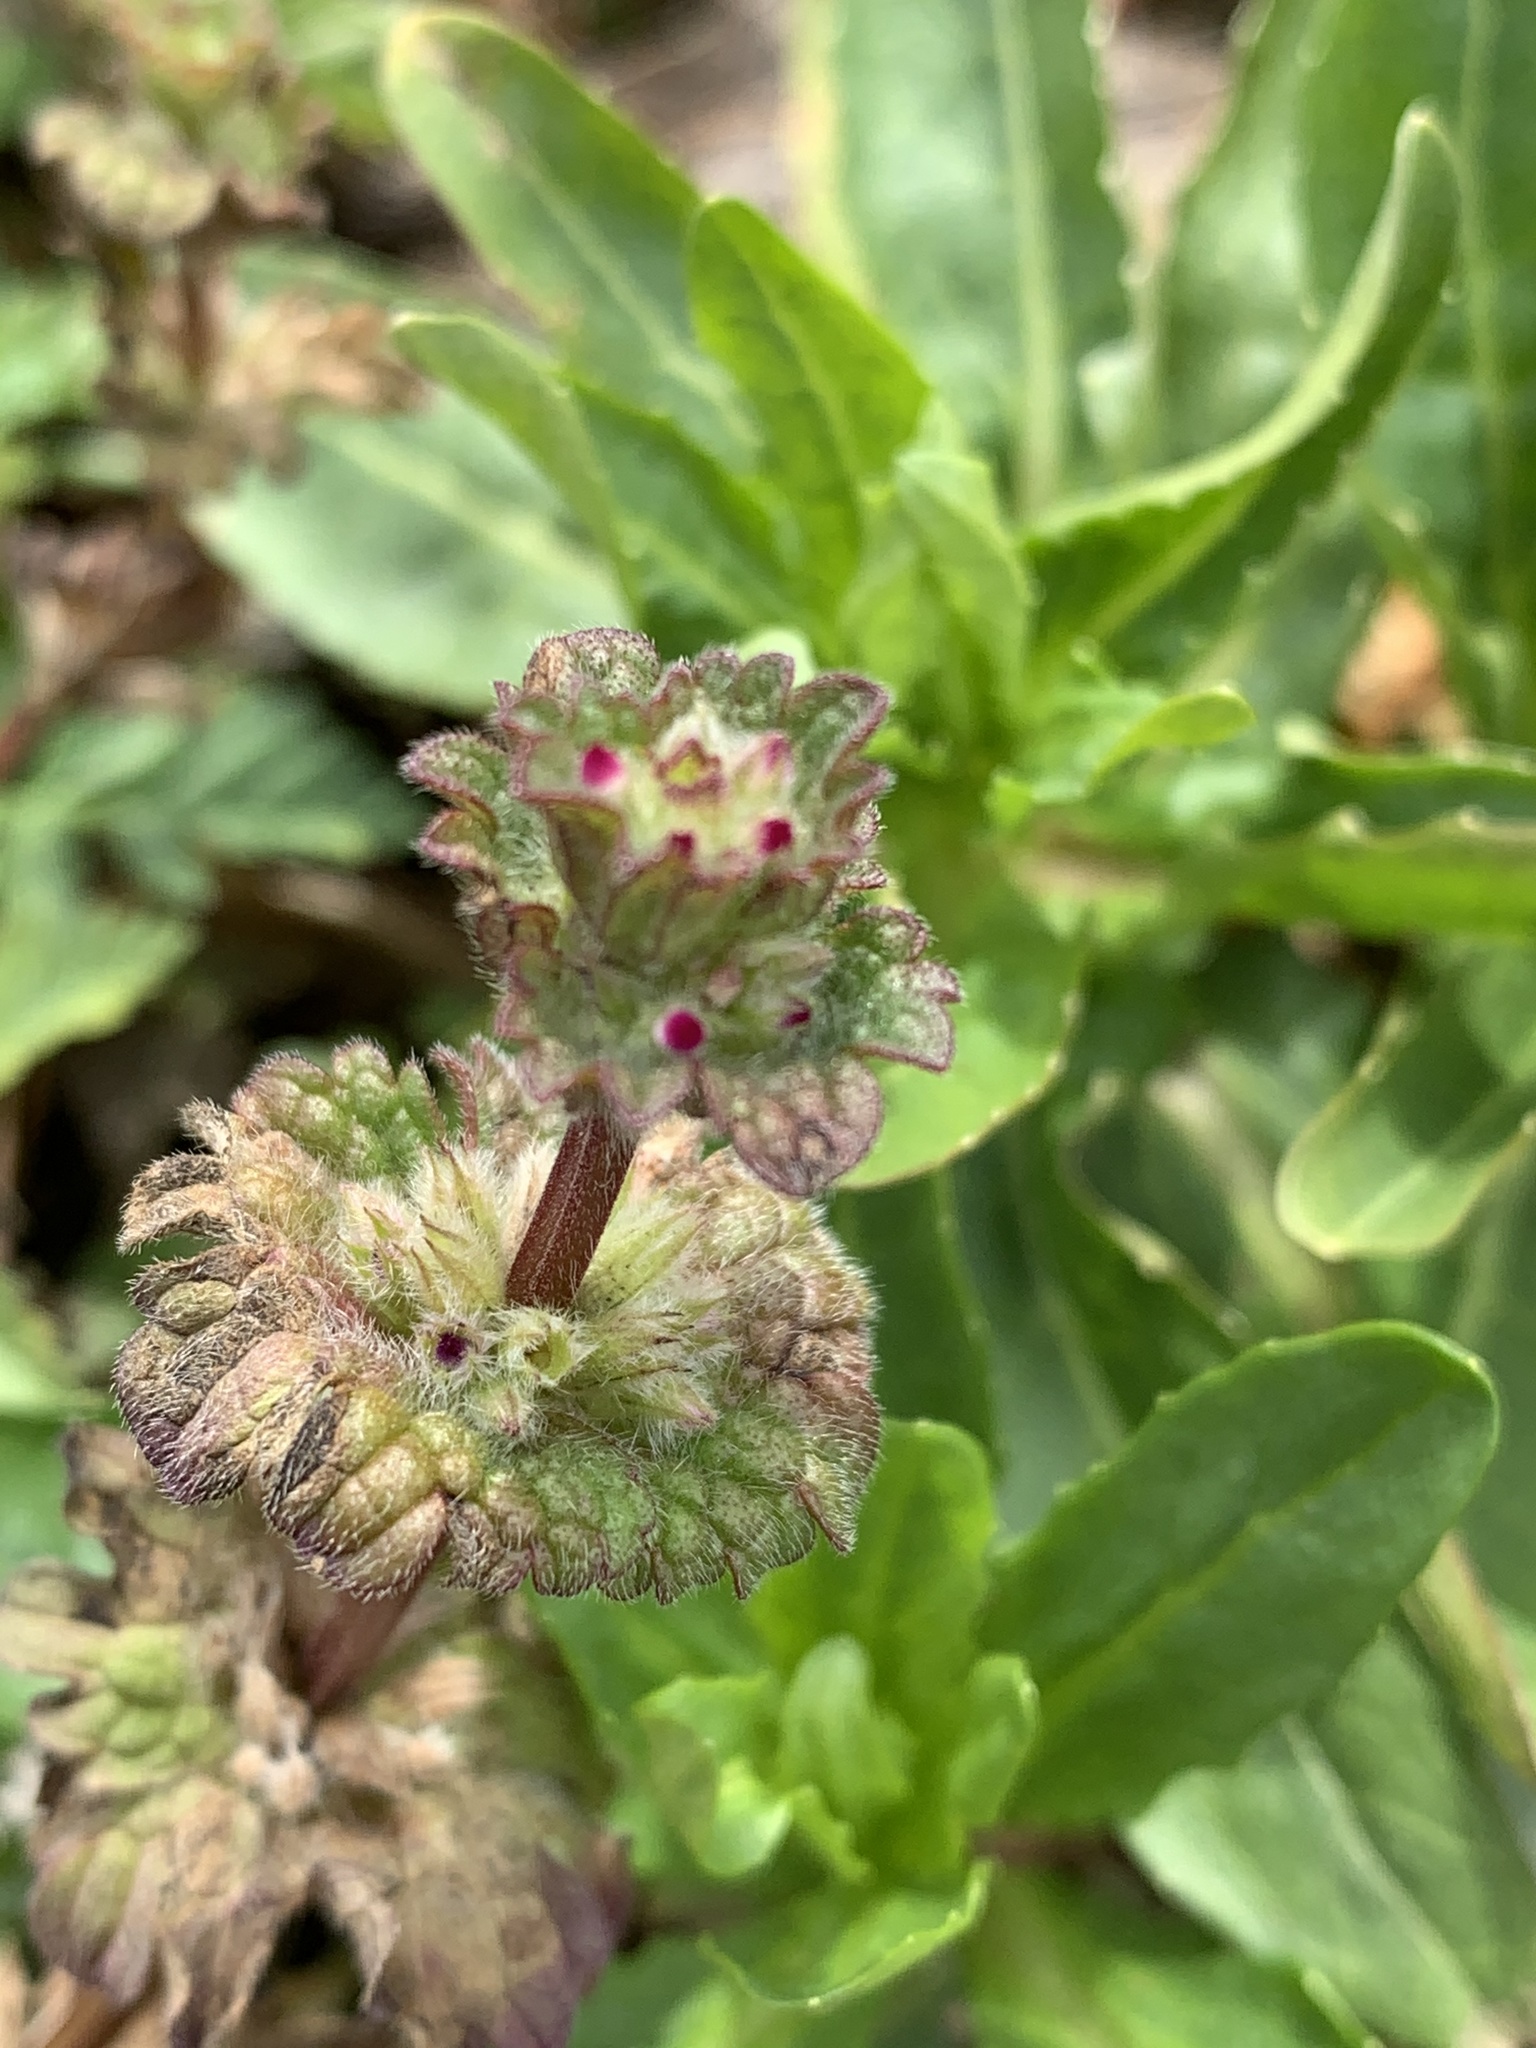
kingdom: Plantae
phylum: Tracheophyta
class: Magnoliopsida
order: Lamiales
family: Lamiaceae
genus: Lamium
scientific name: Lamium amplexicaule
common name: Henbit dead-nettle
